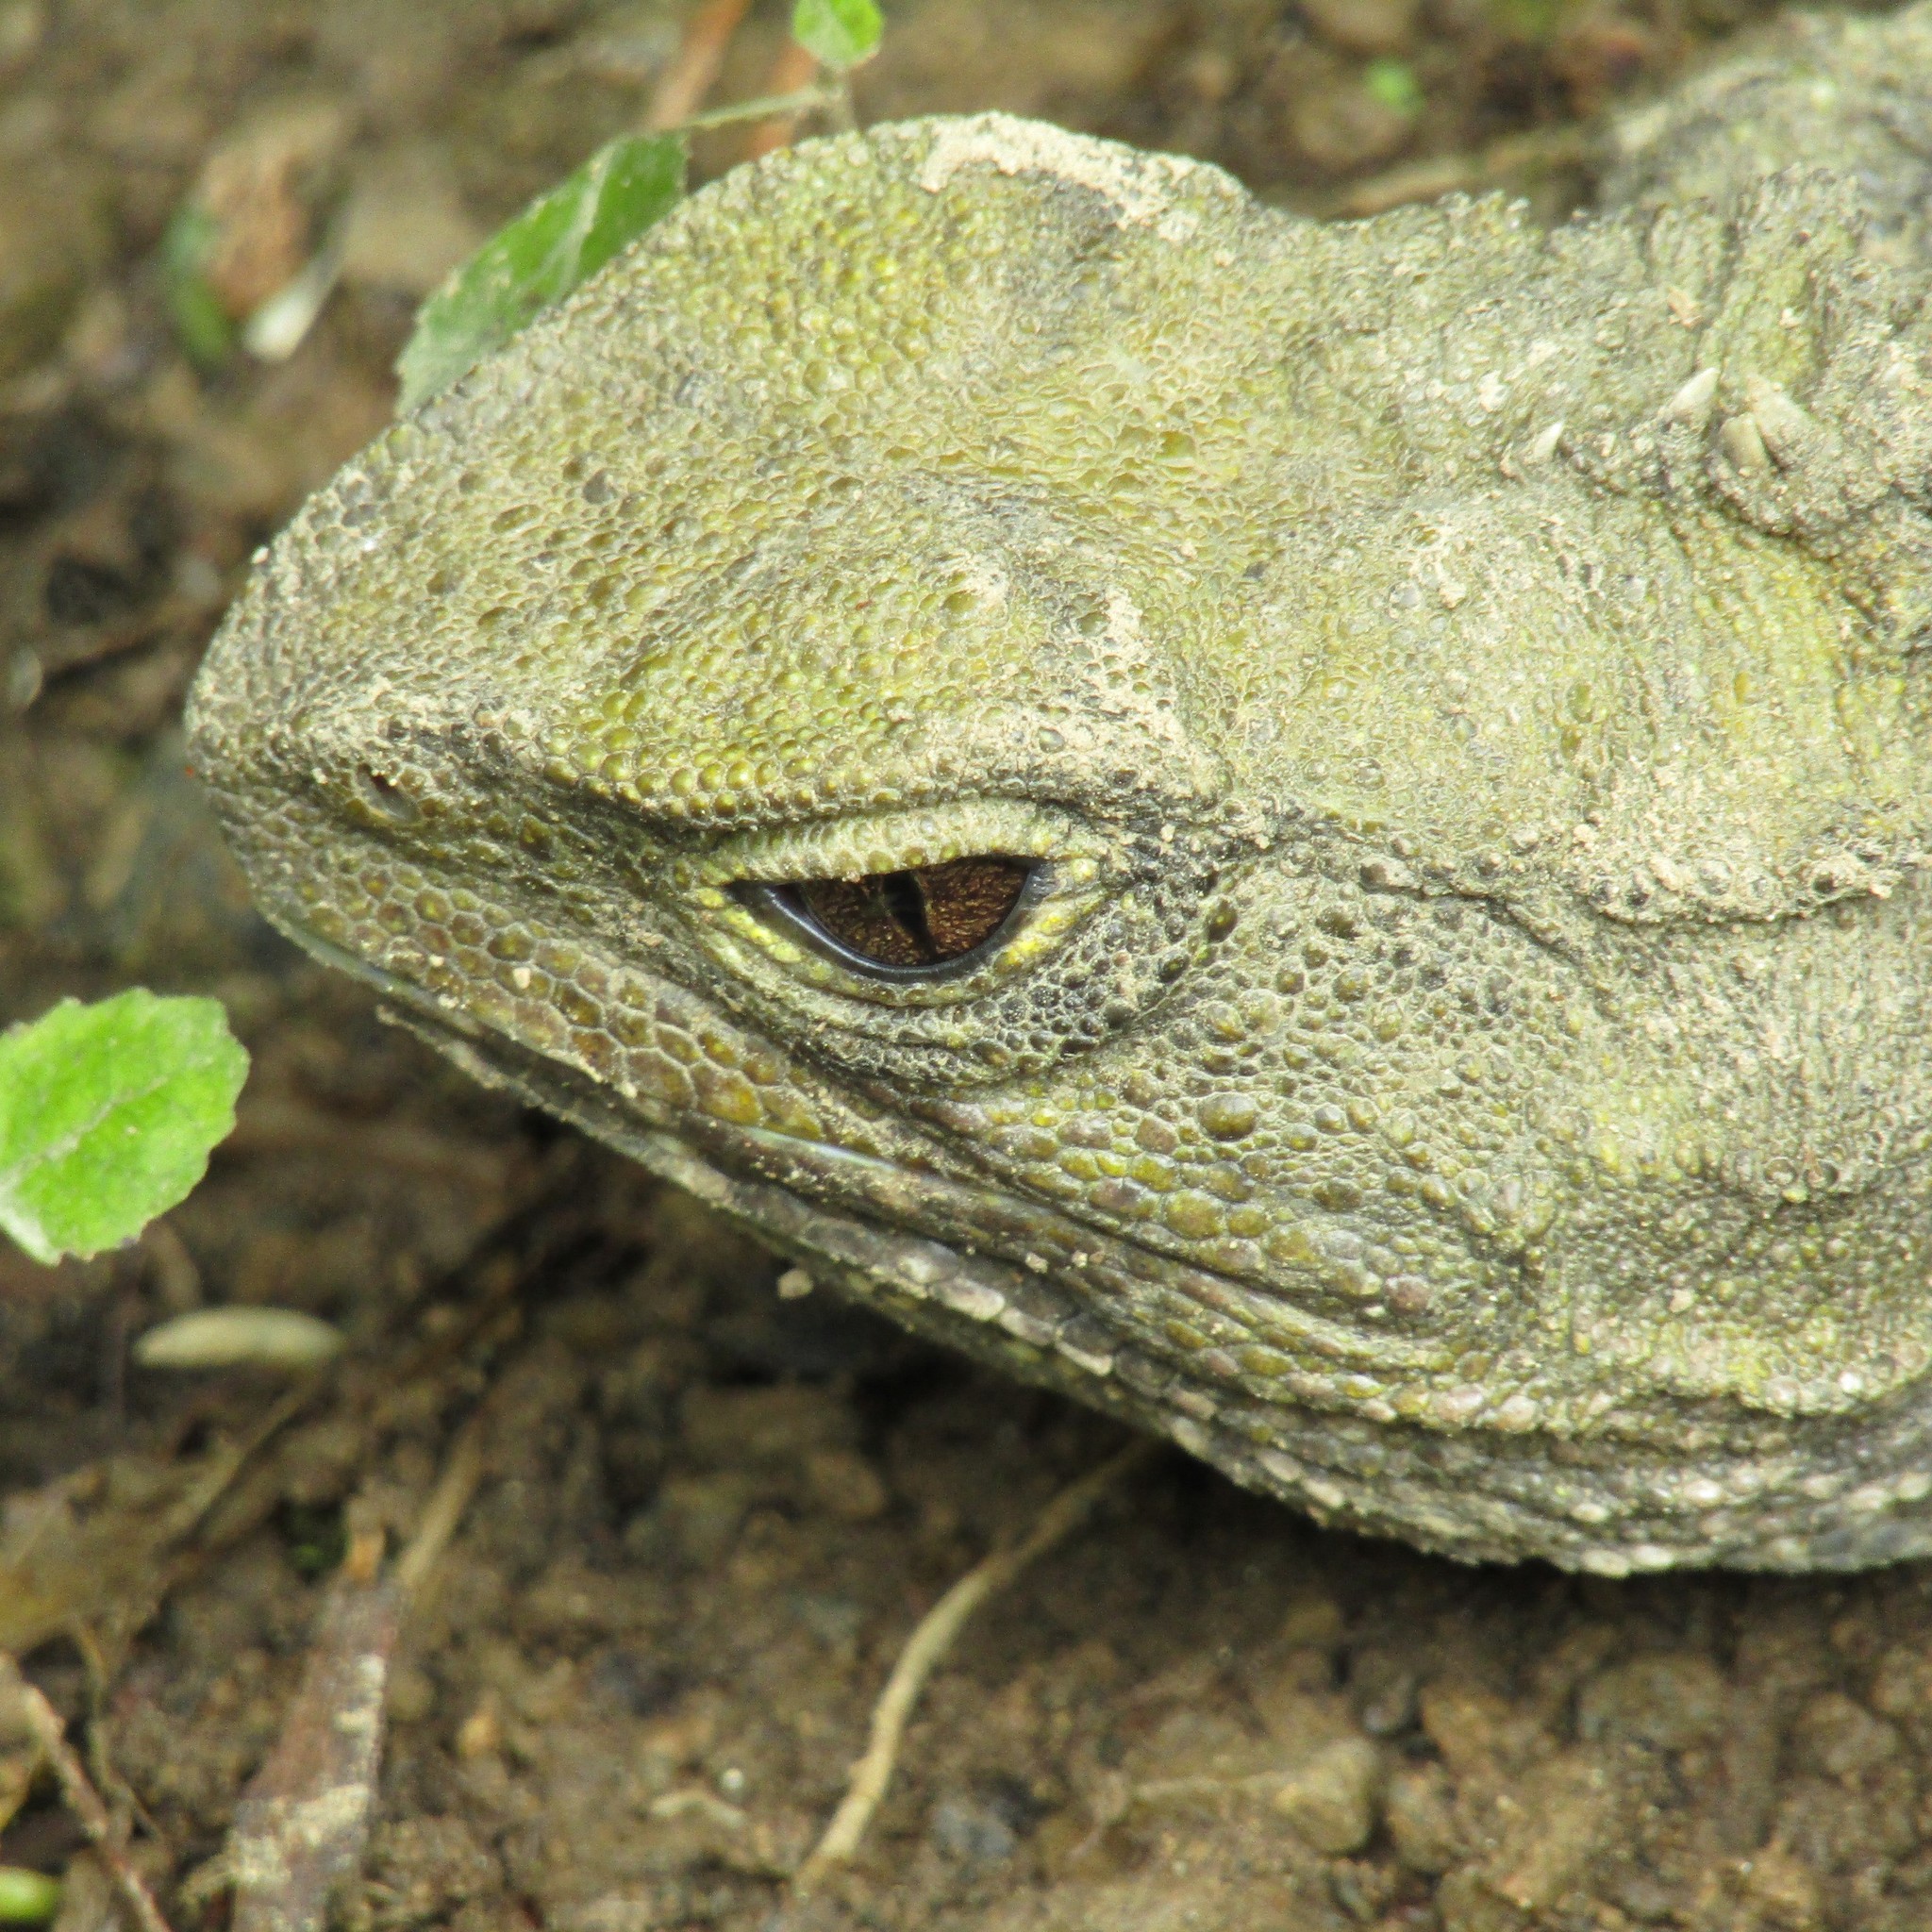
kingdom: Animalia
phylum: Chordata
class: Sphenodontia
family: Sphenodontidae
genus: Sphenodon
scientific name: Sphenodon punctatus
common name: Tuatara
